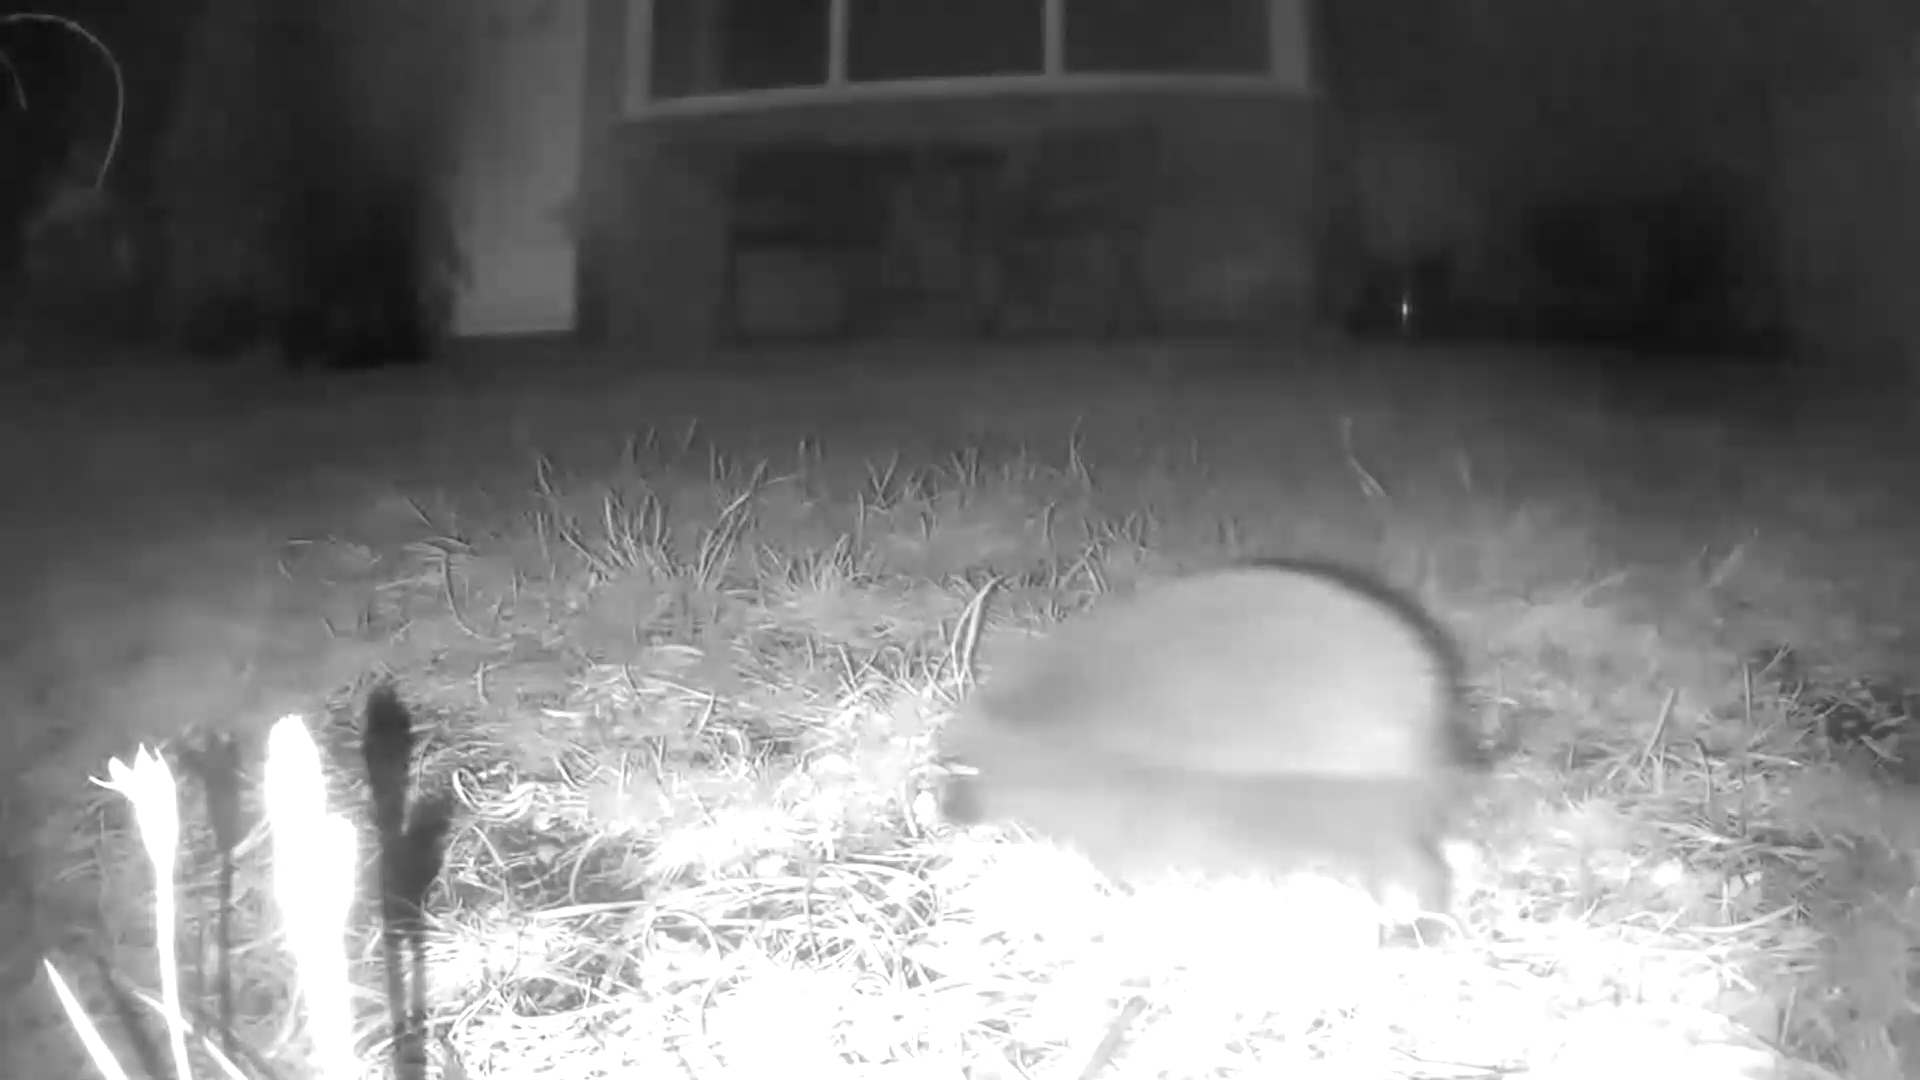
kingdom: Animalia
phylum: Chordata
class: Mammalia
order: Erinaceomorpha
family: Erinaceidae
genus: Erinaceus
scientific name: Erinaceus europaeus
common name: West european hedgehog
